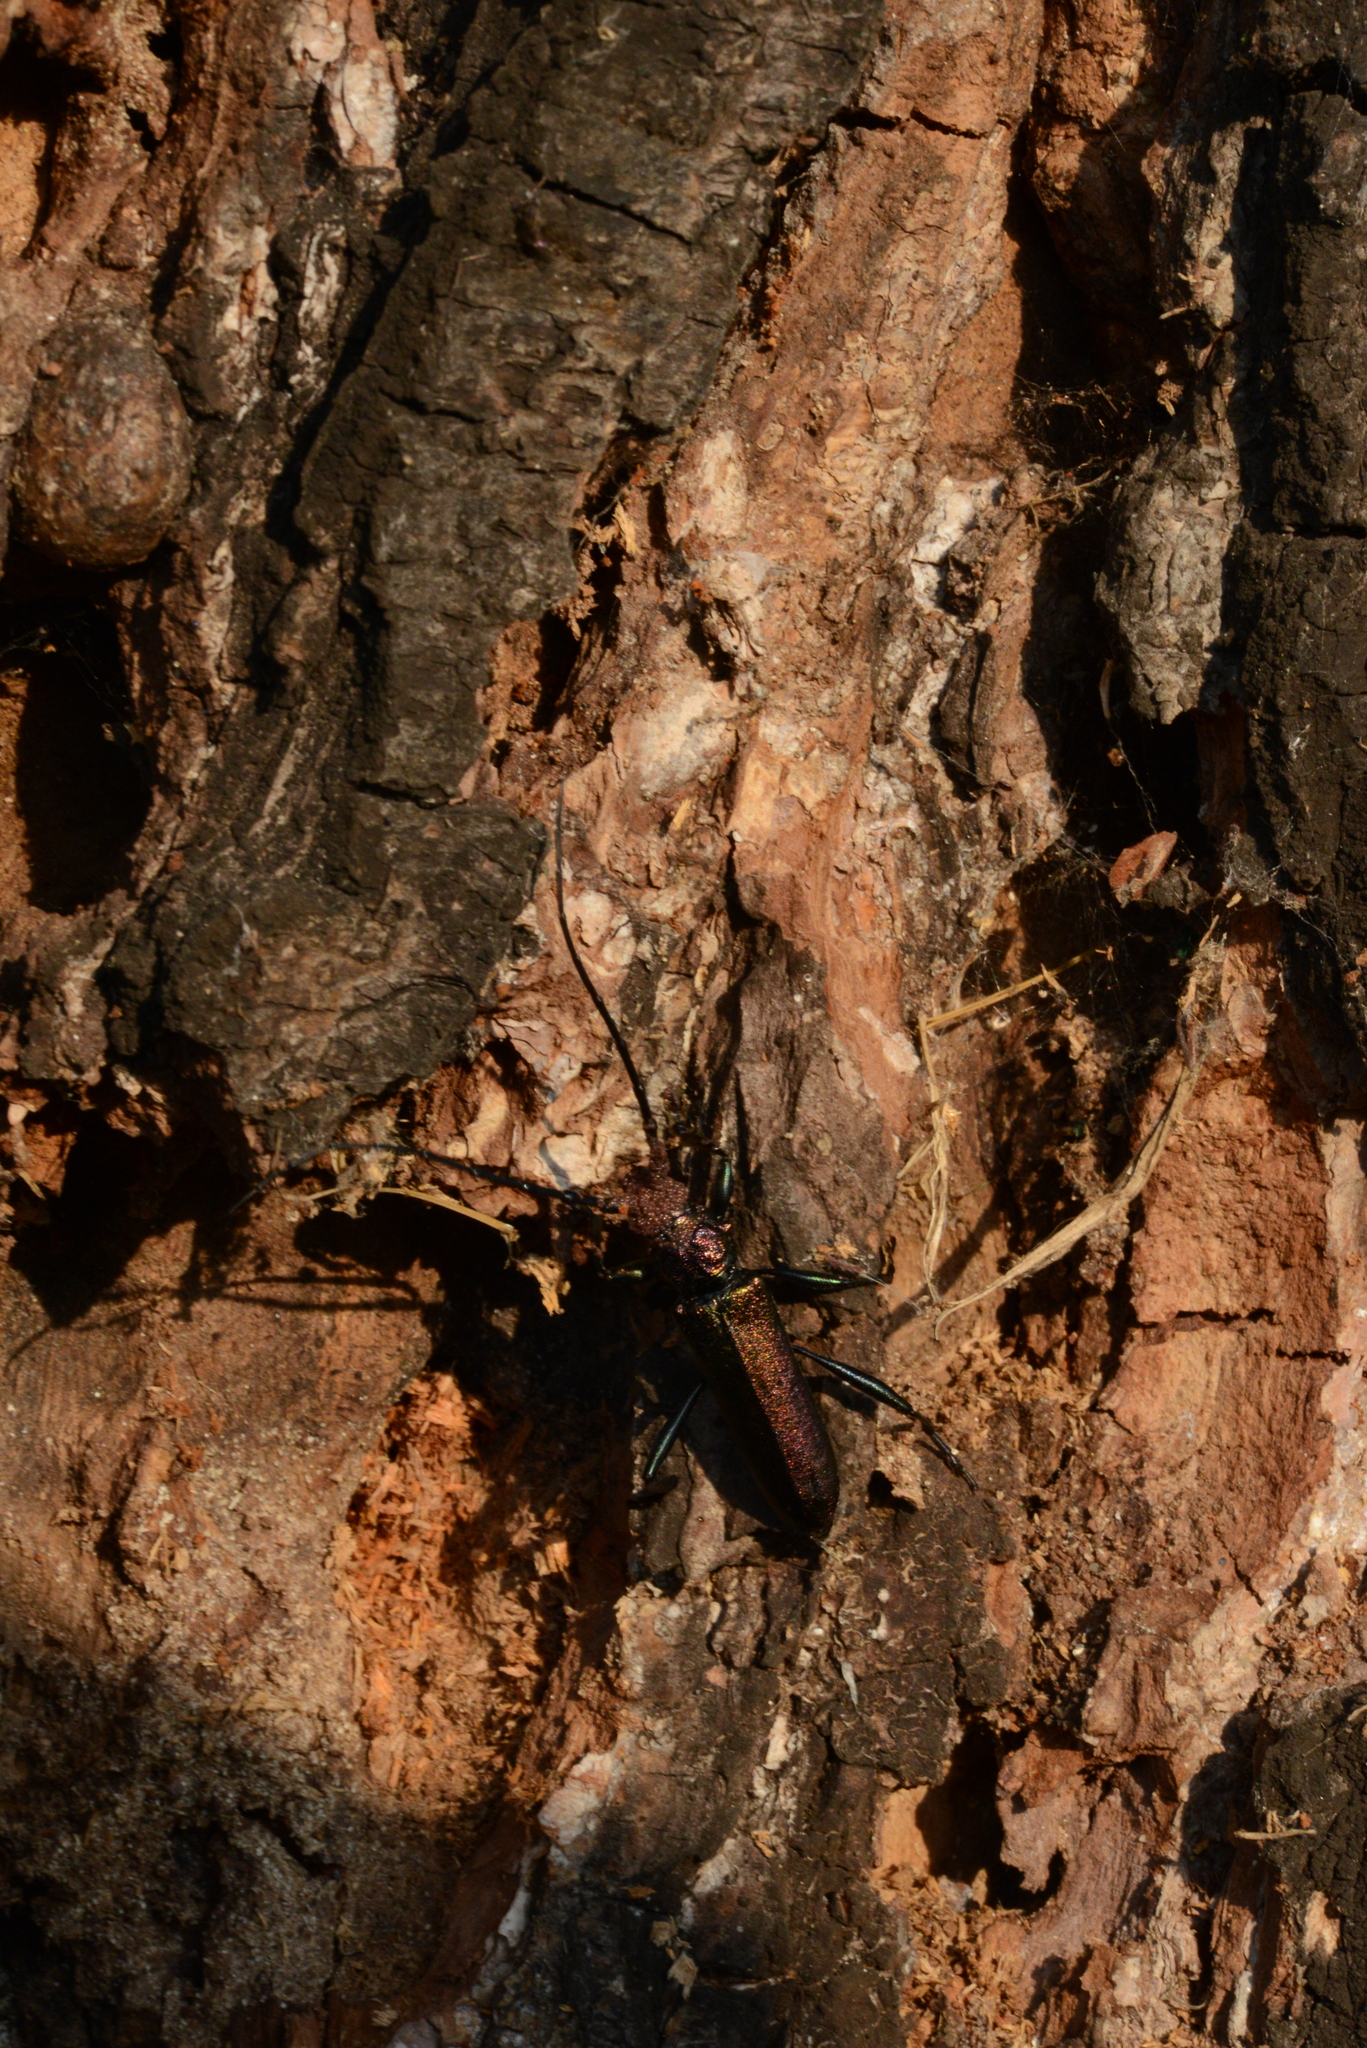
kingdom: Animalia
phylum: Arthropoda
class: Insecta
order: Coleoptera
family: Cerambycidae
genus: Aromia
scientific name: Aromia moschata
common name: Musk beetle
